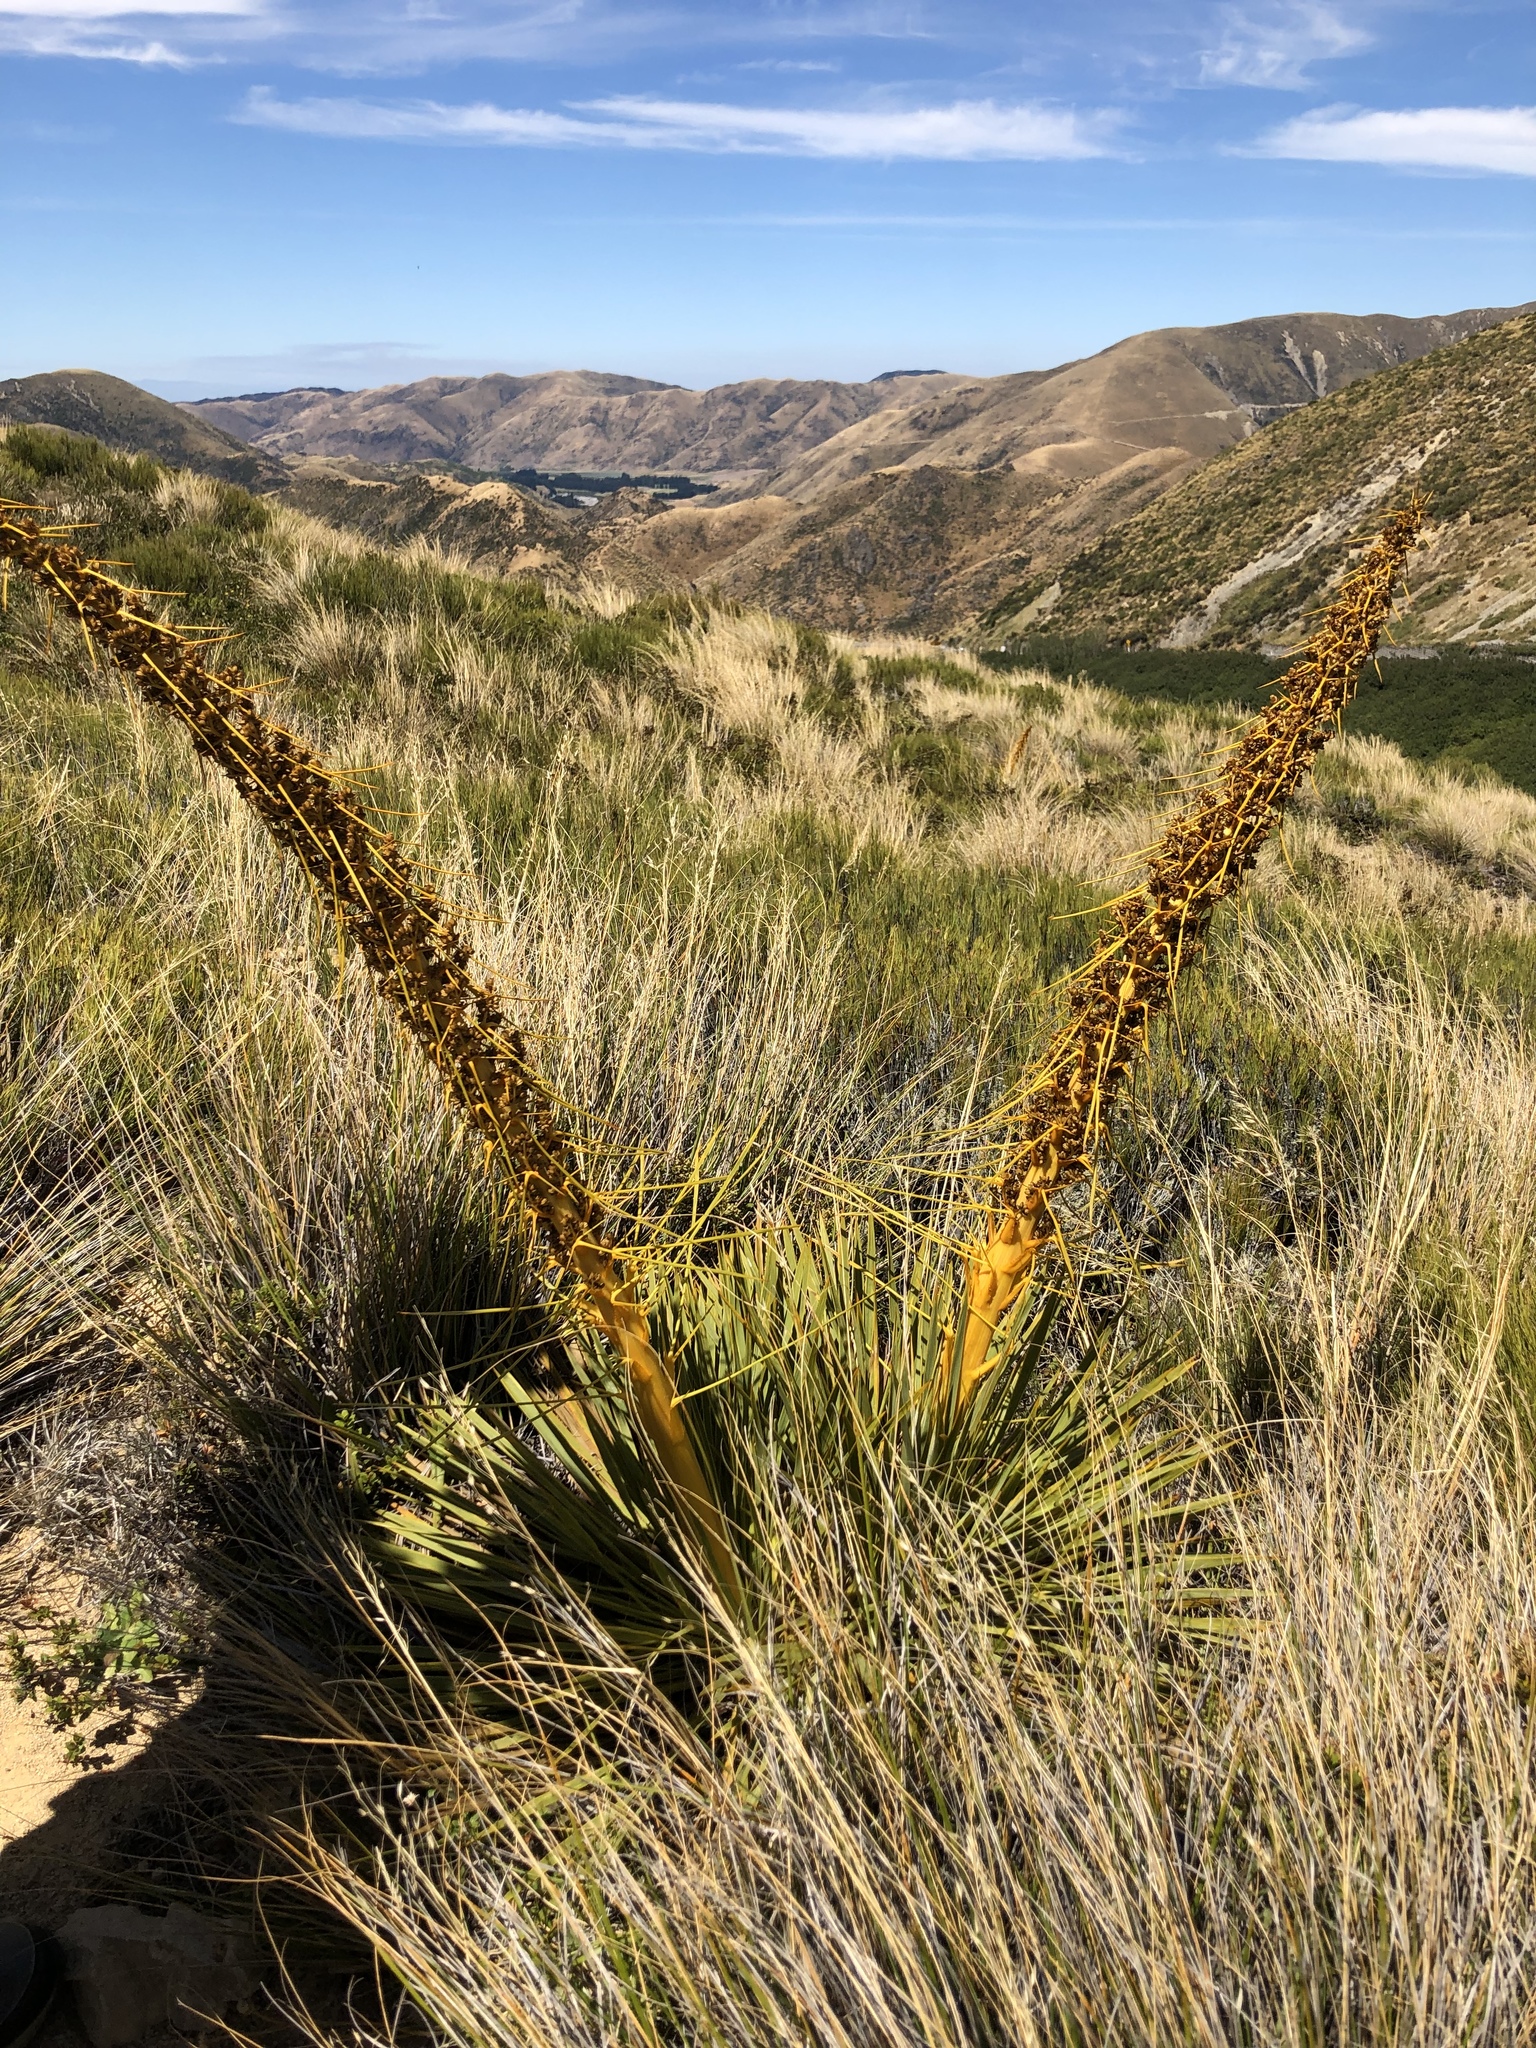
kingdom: Plantae
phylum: Tracheophyta
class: Magnoliopsida
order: Apiales
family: Apiaceae
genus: Aciphylla
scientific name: Aciphylla aurea
